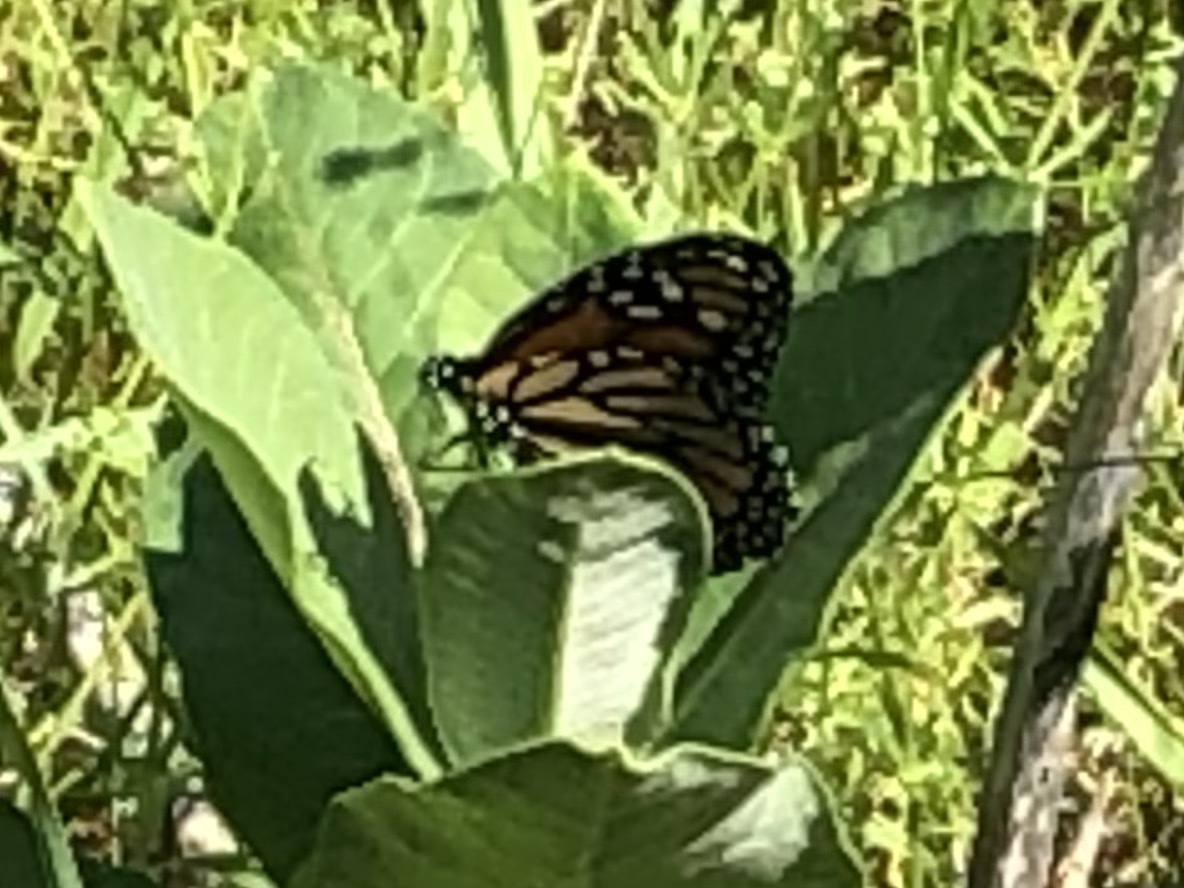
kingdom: Animalia
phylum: Arthropoda
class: Insecta
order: Lepidoptera
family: Nymphalidae
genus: Danaus
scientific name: Danaus plexippus
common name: Monarch
